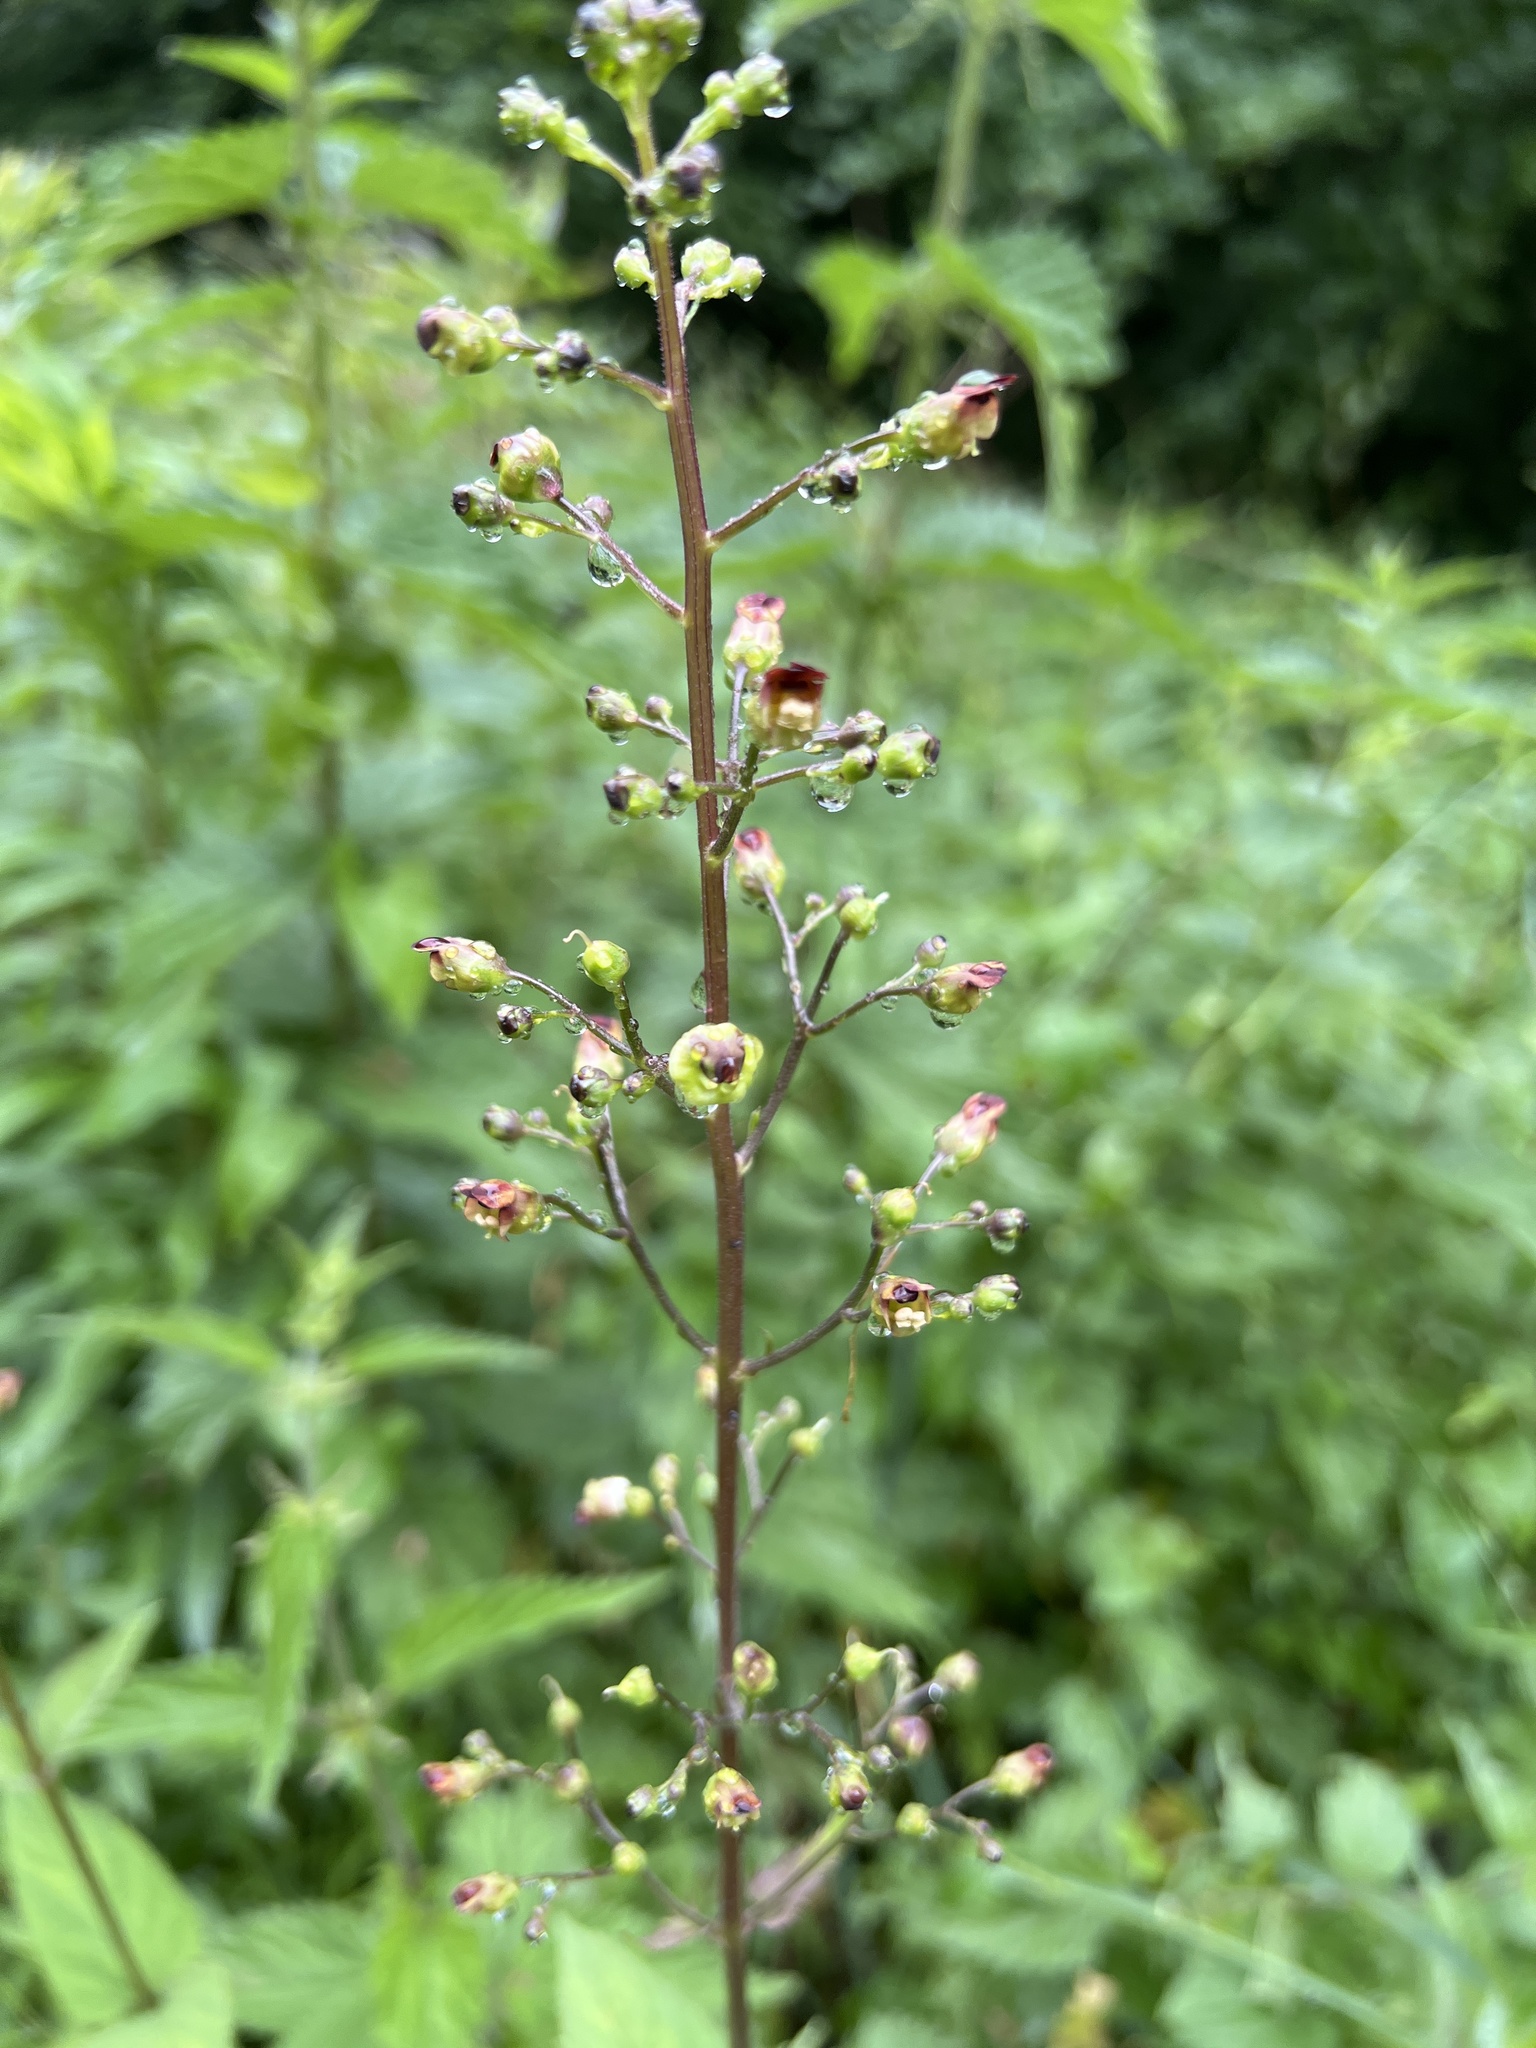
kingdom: Plantae
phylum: Tracheophyta
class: Magnoliopsida
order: Lamiales
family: Scrophulariaceae
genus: Scrophularia
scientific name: Scrophularia nodosa
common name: Common figwort
